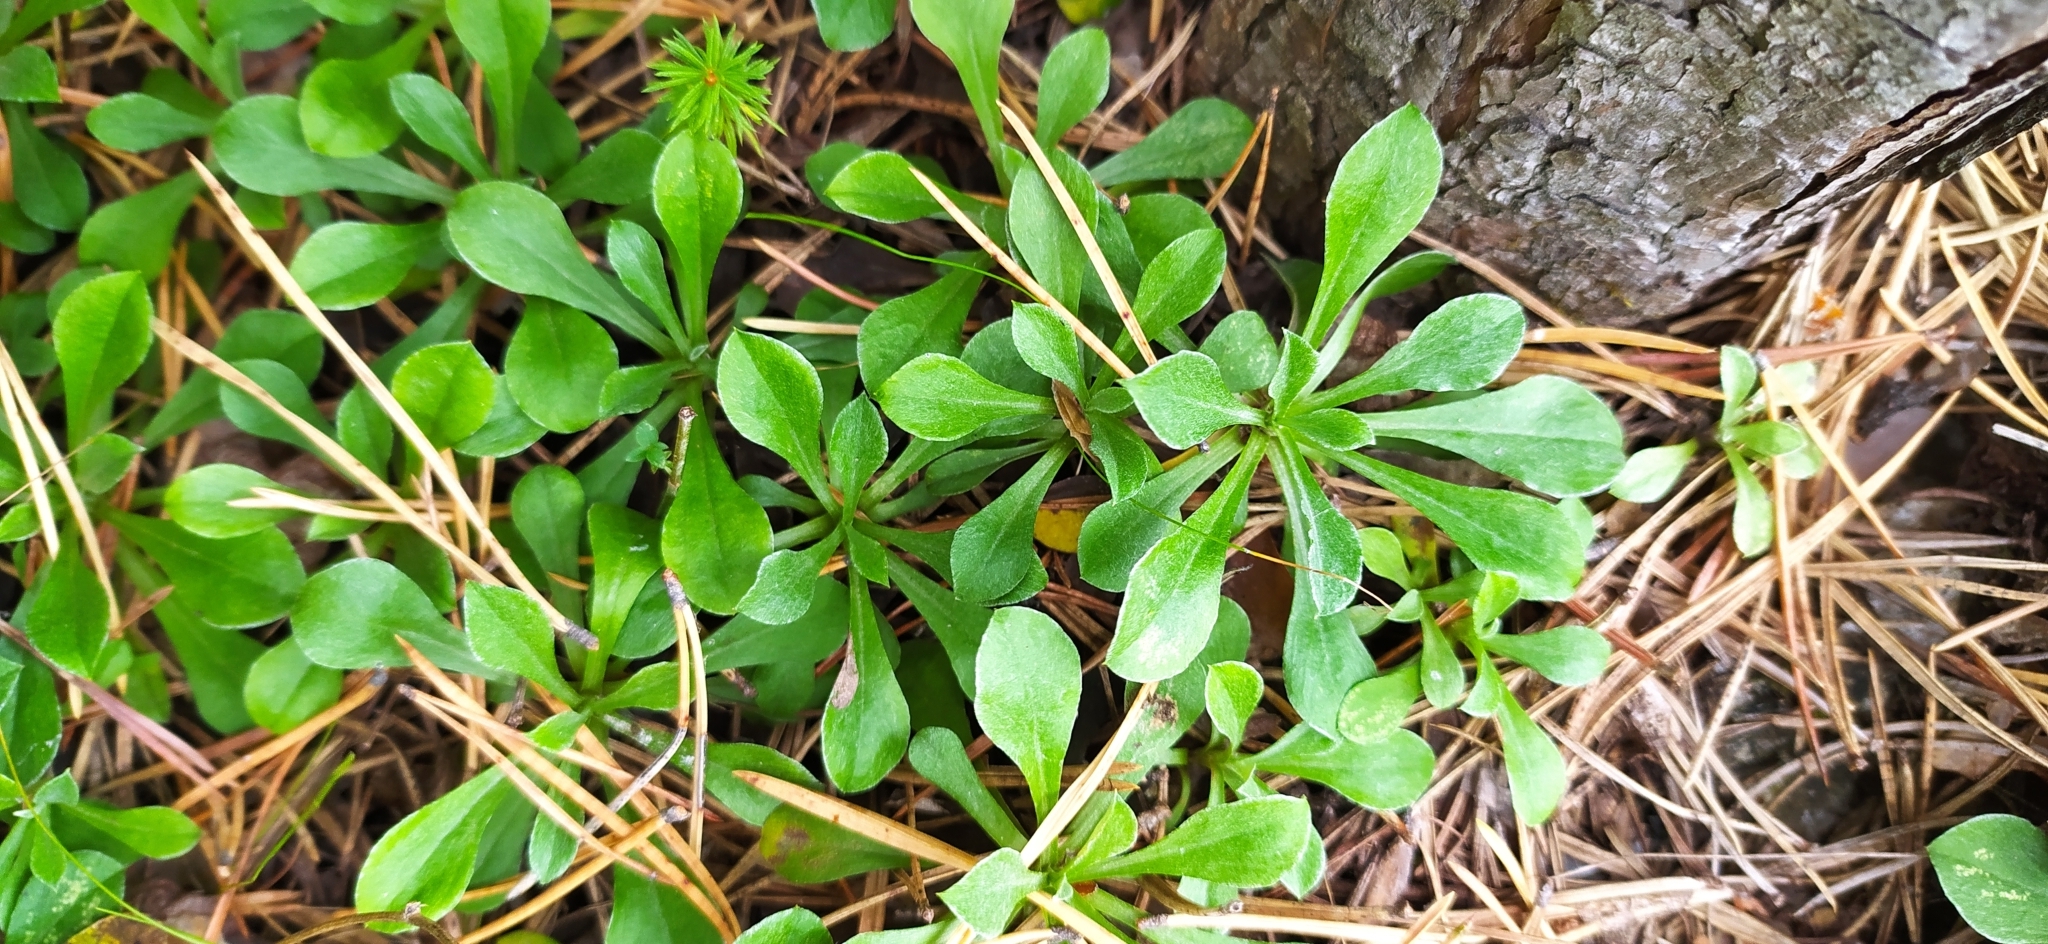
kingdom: Plantae
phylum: Tracheophyta
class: Magnoliopsida
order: Asterales
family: Asteraceae
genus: Antennaria
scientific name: Antennaria dioica
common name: Mountain everlasting
